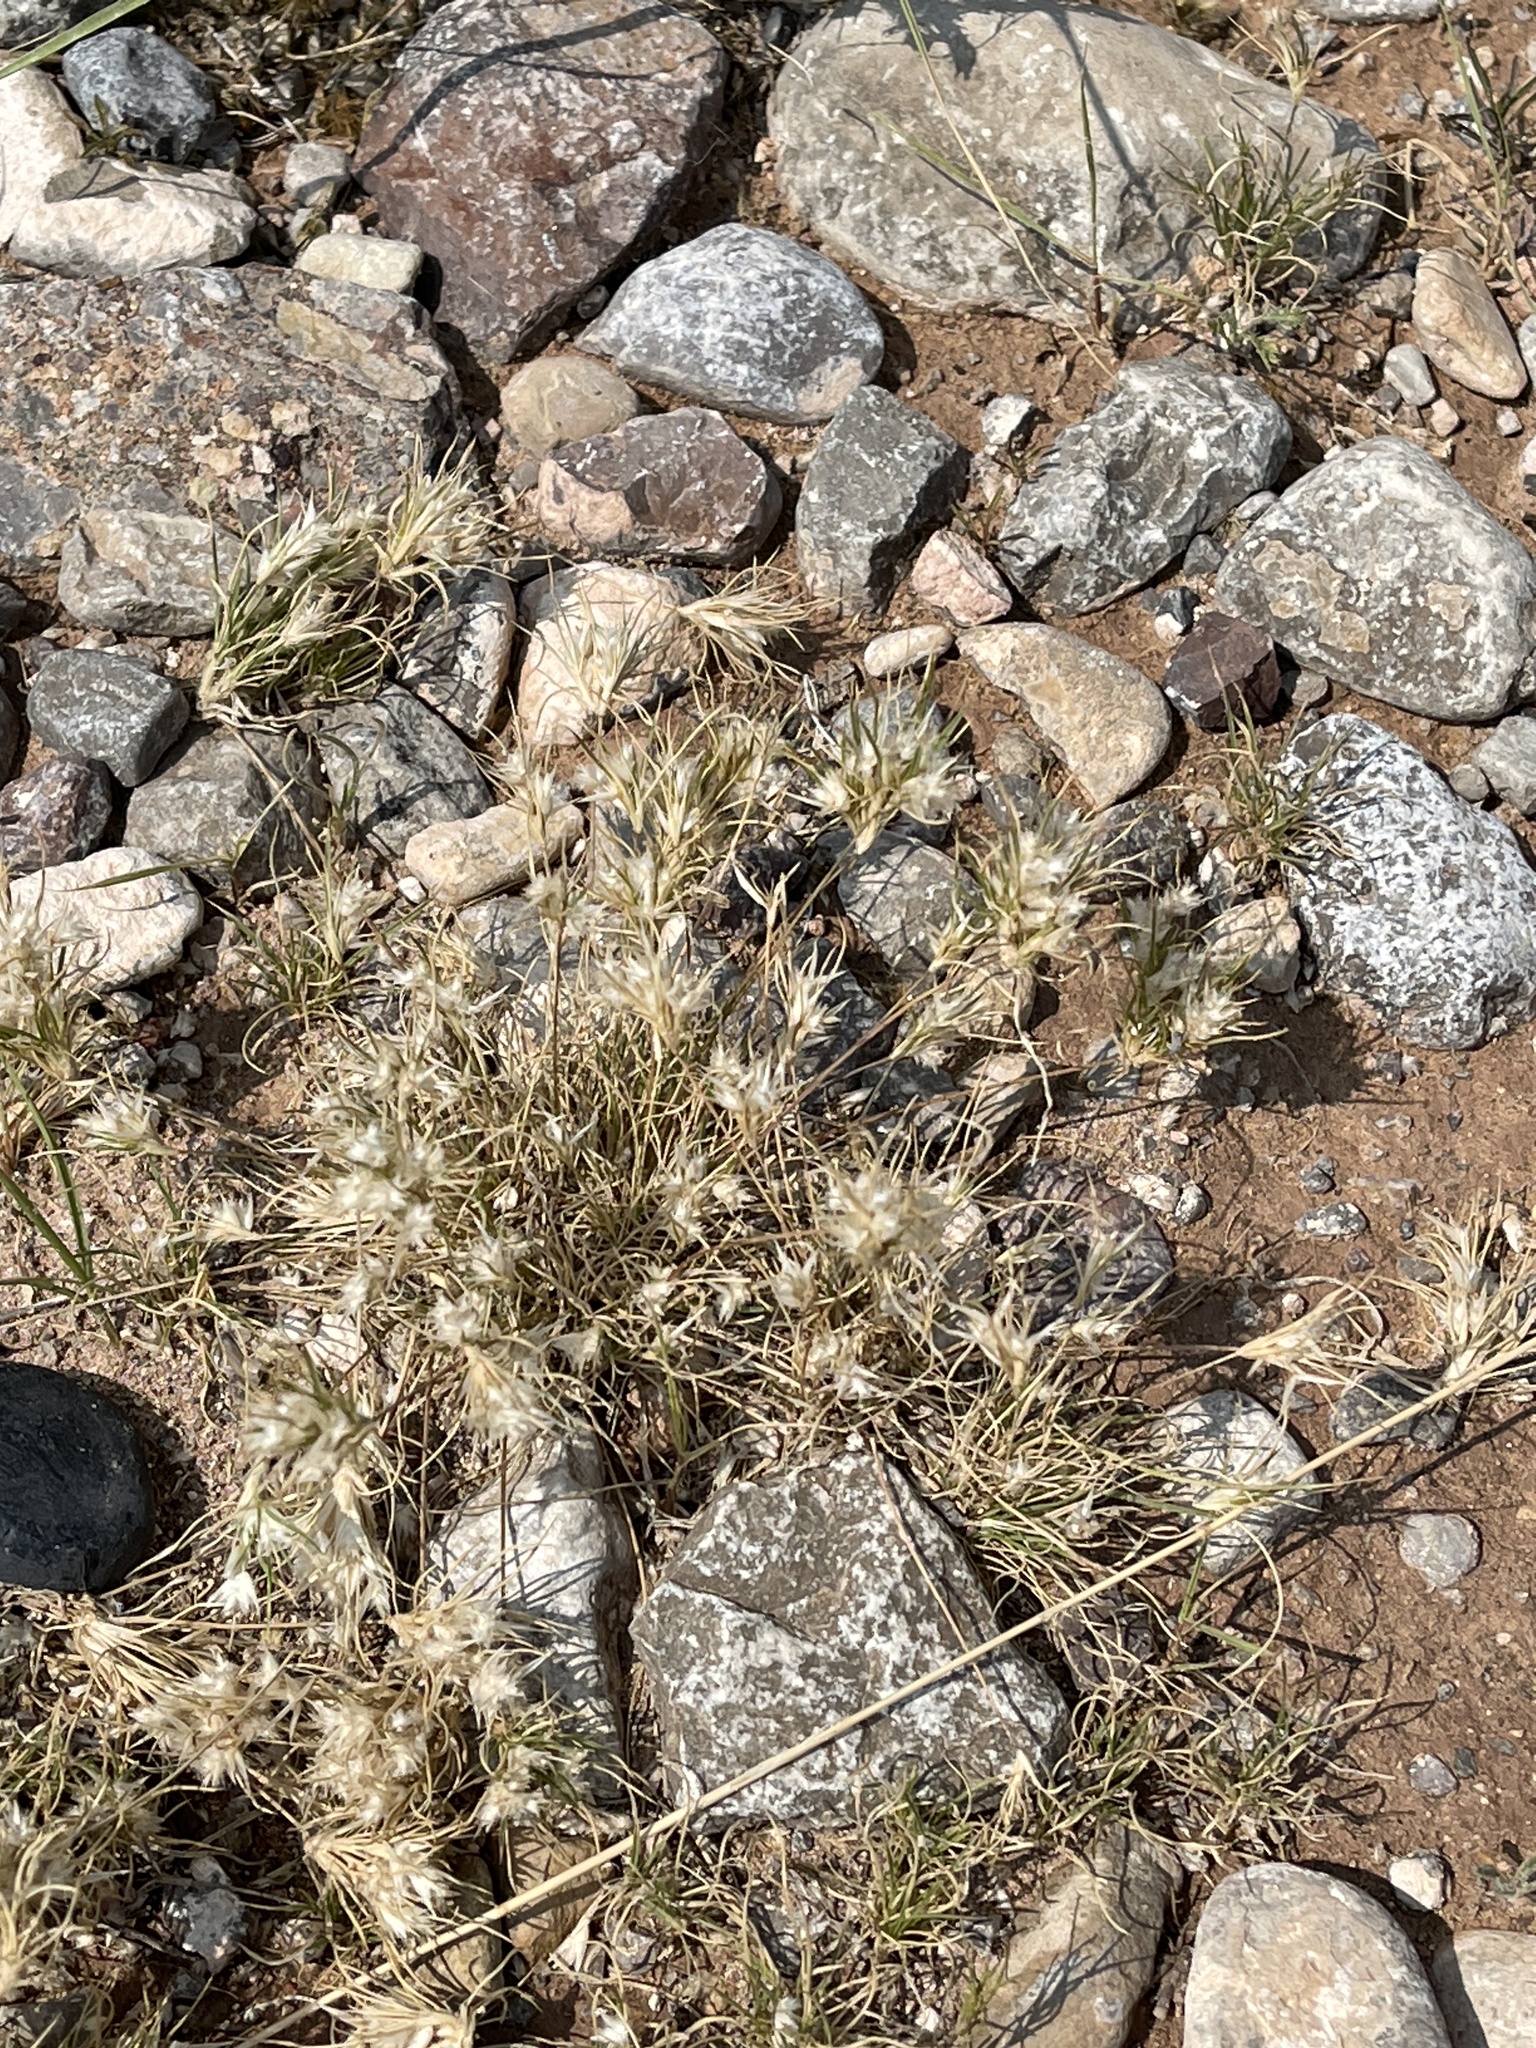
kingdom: Plantae
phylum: Tracheophyta
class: Liliopsida
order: Poales
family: Poaceae
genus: Dasyochloa
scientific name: Dasyochloa pulchella
